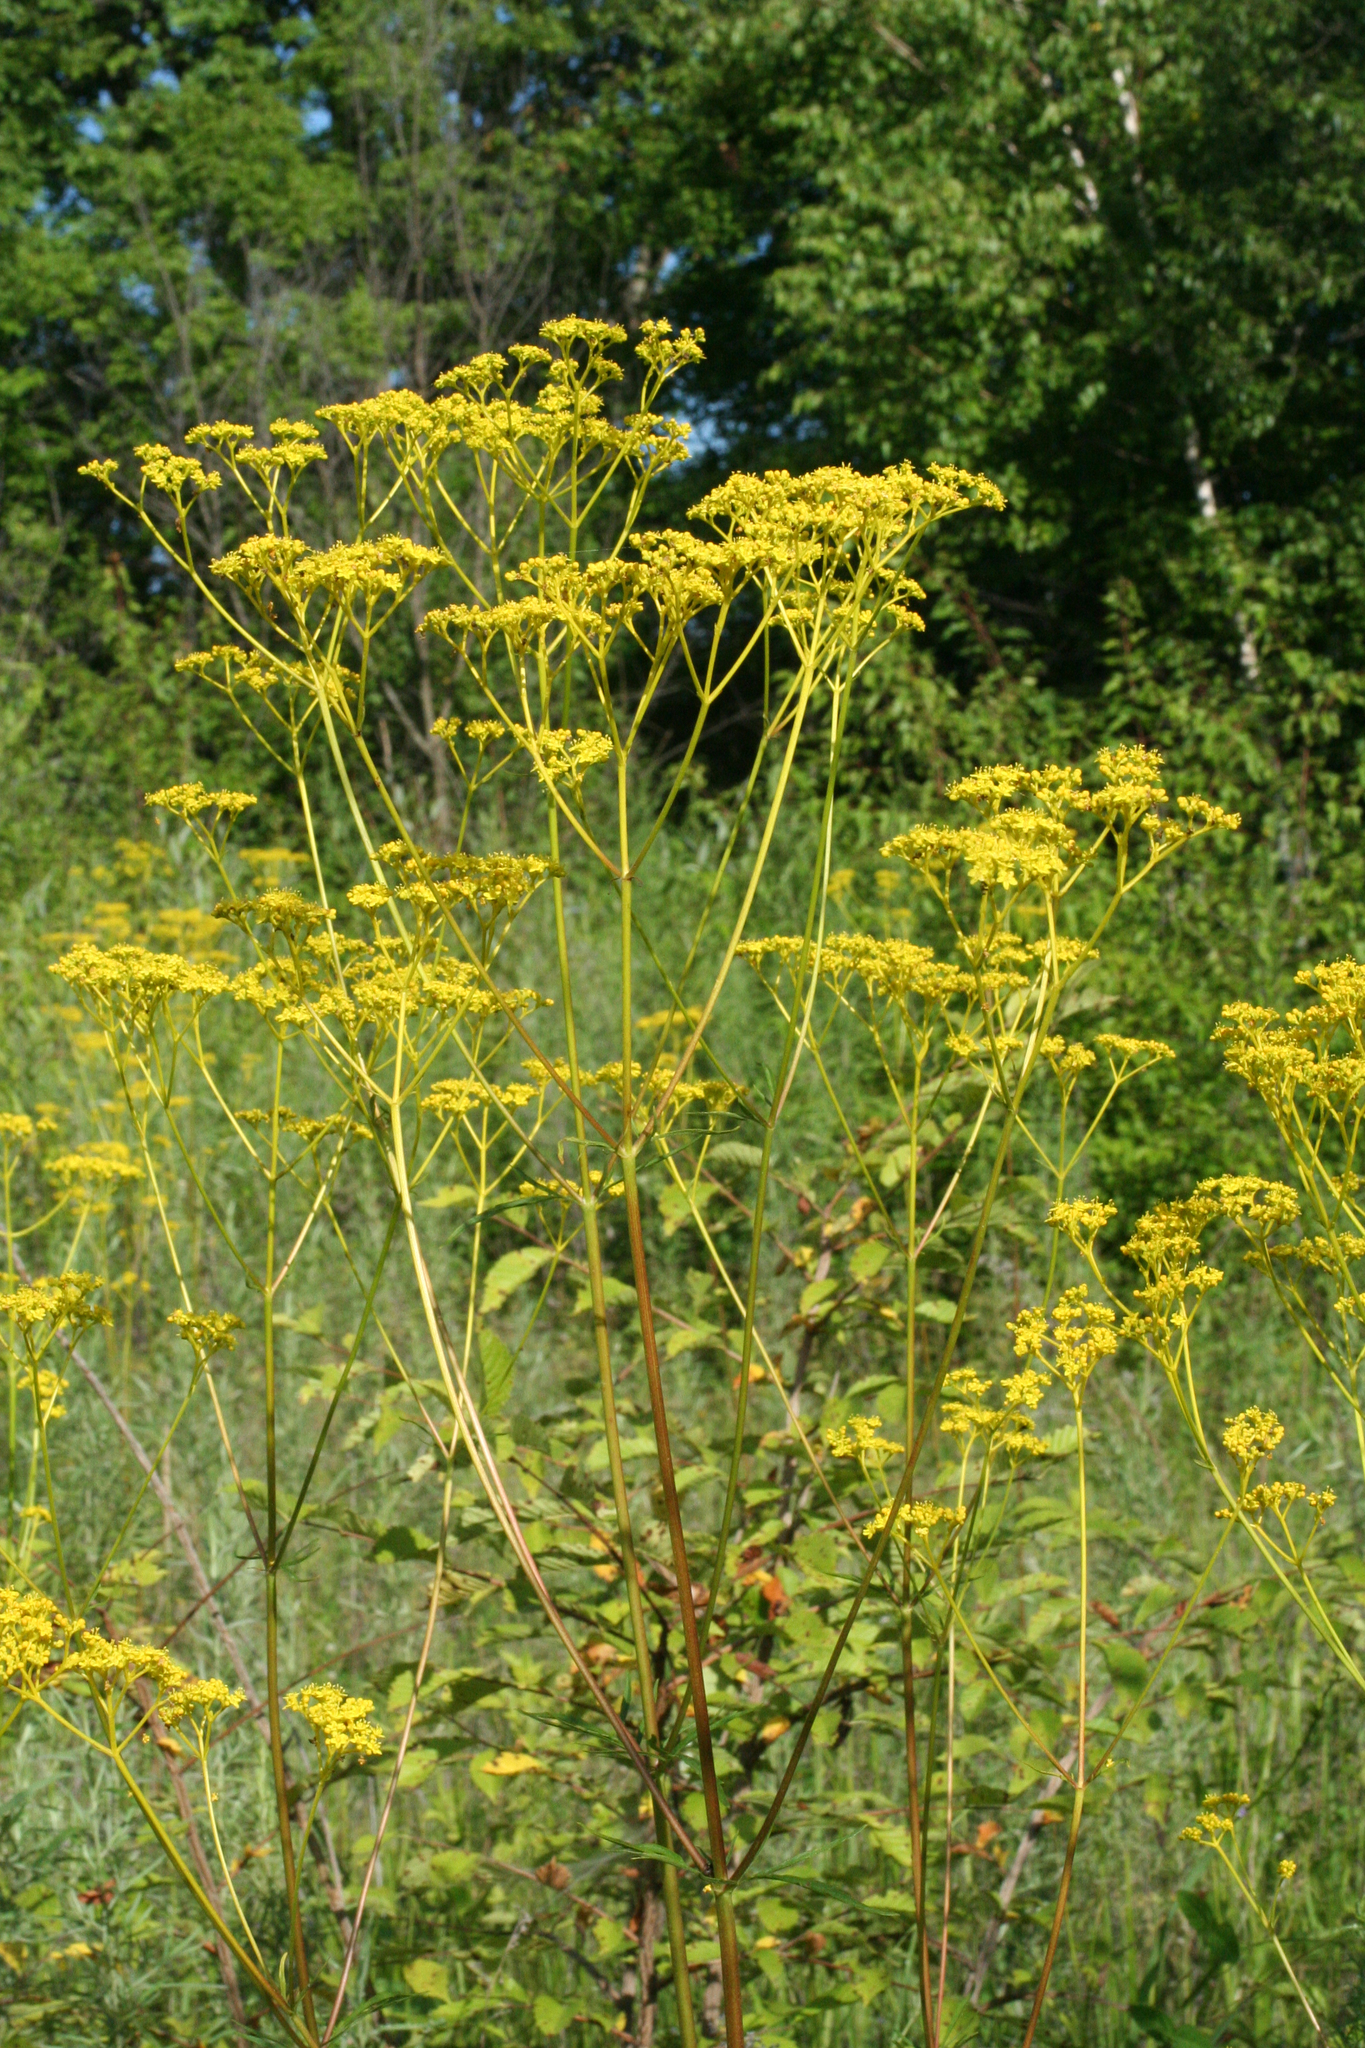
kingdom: Plantae
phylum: Tracheophyta
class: Magnoliopsida
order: Dipsacales
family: Caprifoliaceae
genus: Patrinia
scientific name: Patrinia scabiosifolia
